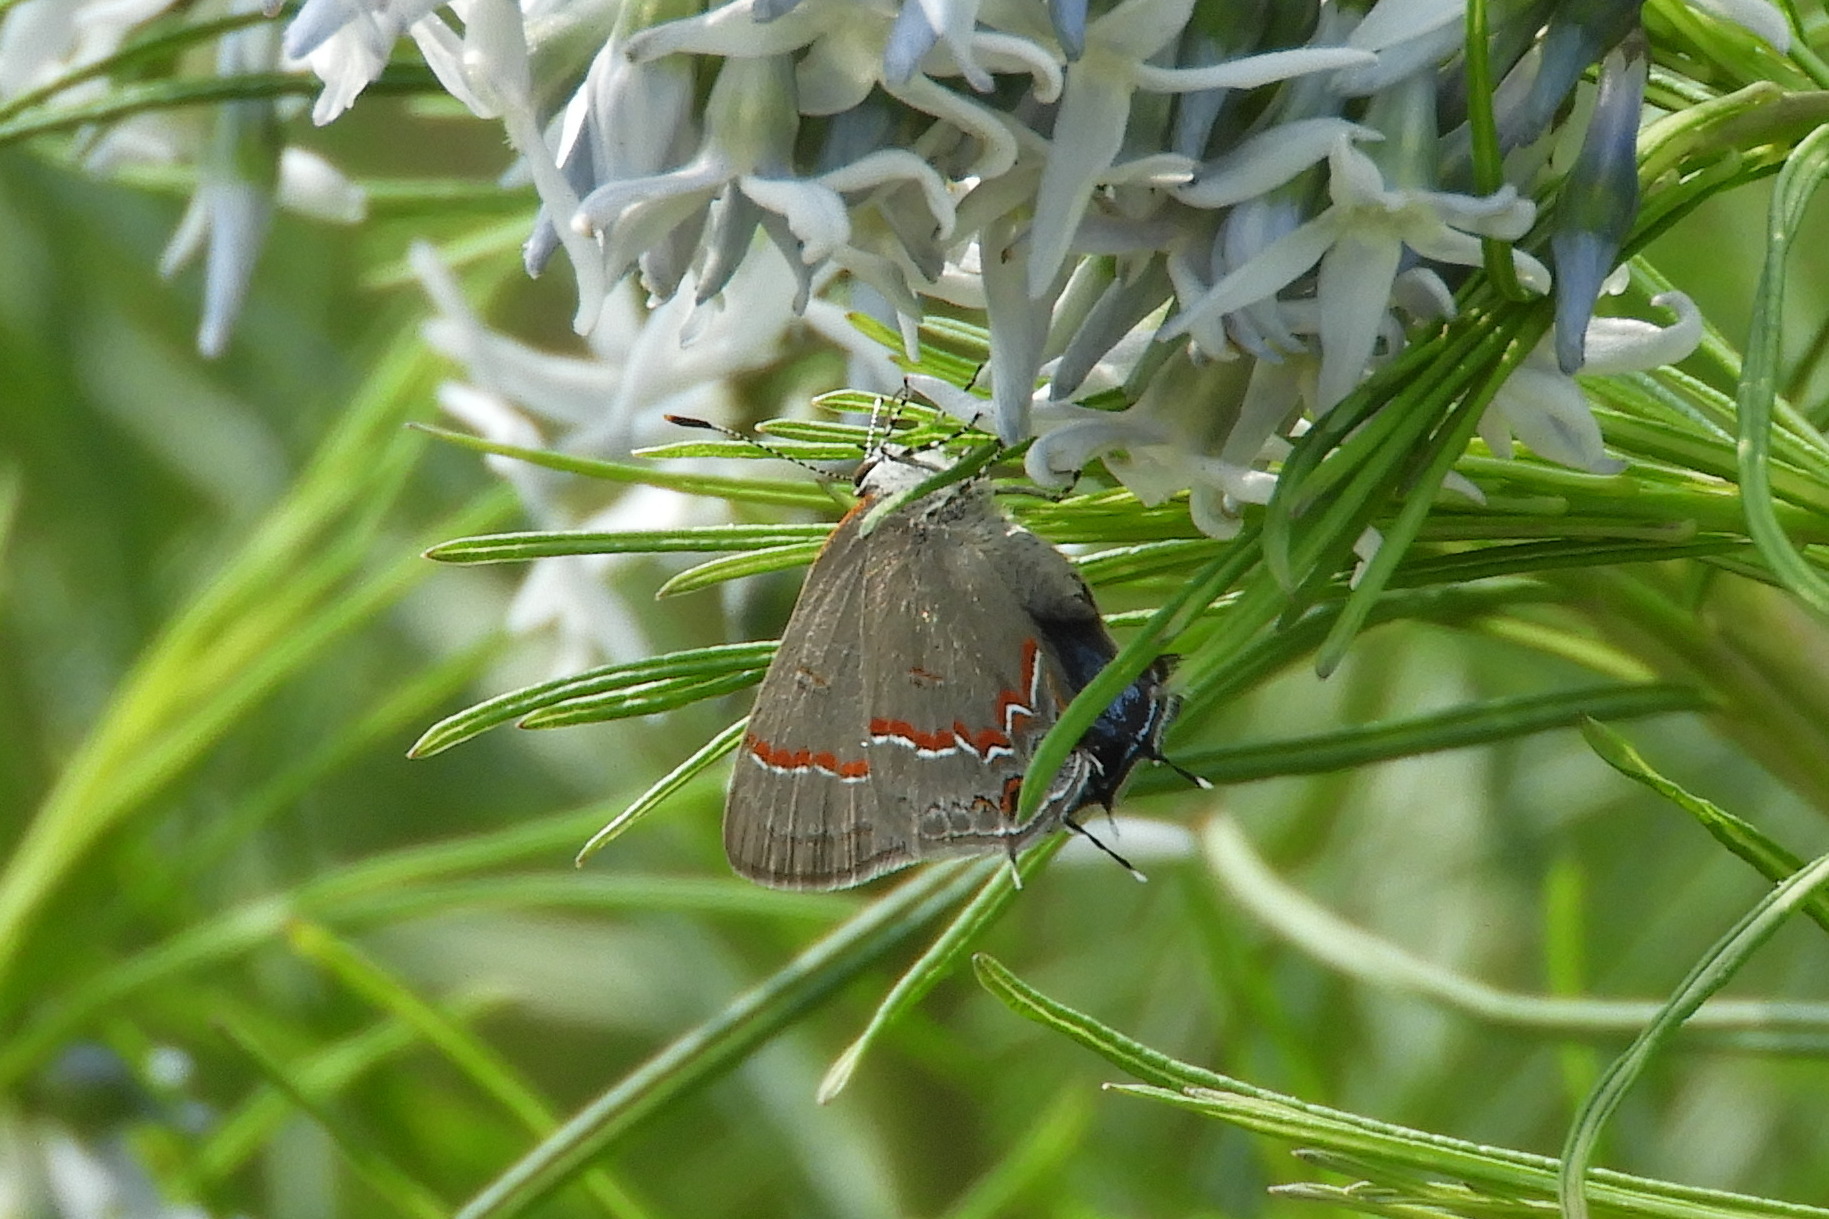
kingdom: Animalia
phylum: Arthropoda
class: Insecta
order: Lepidoptera
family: Lycaenidae
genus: Calycopis
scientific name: Calycopis cecrops
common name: Red-banded hairstreak
